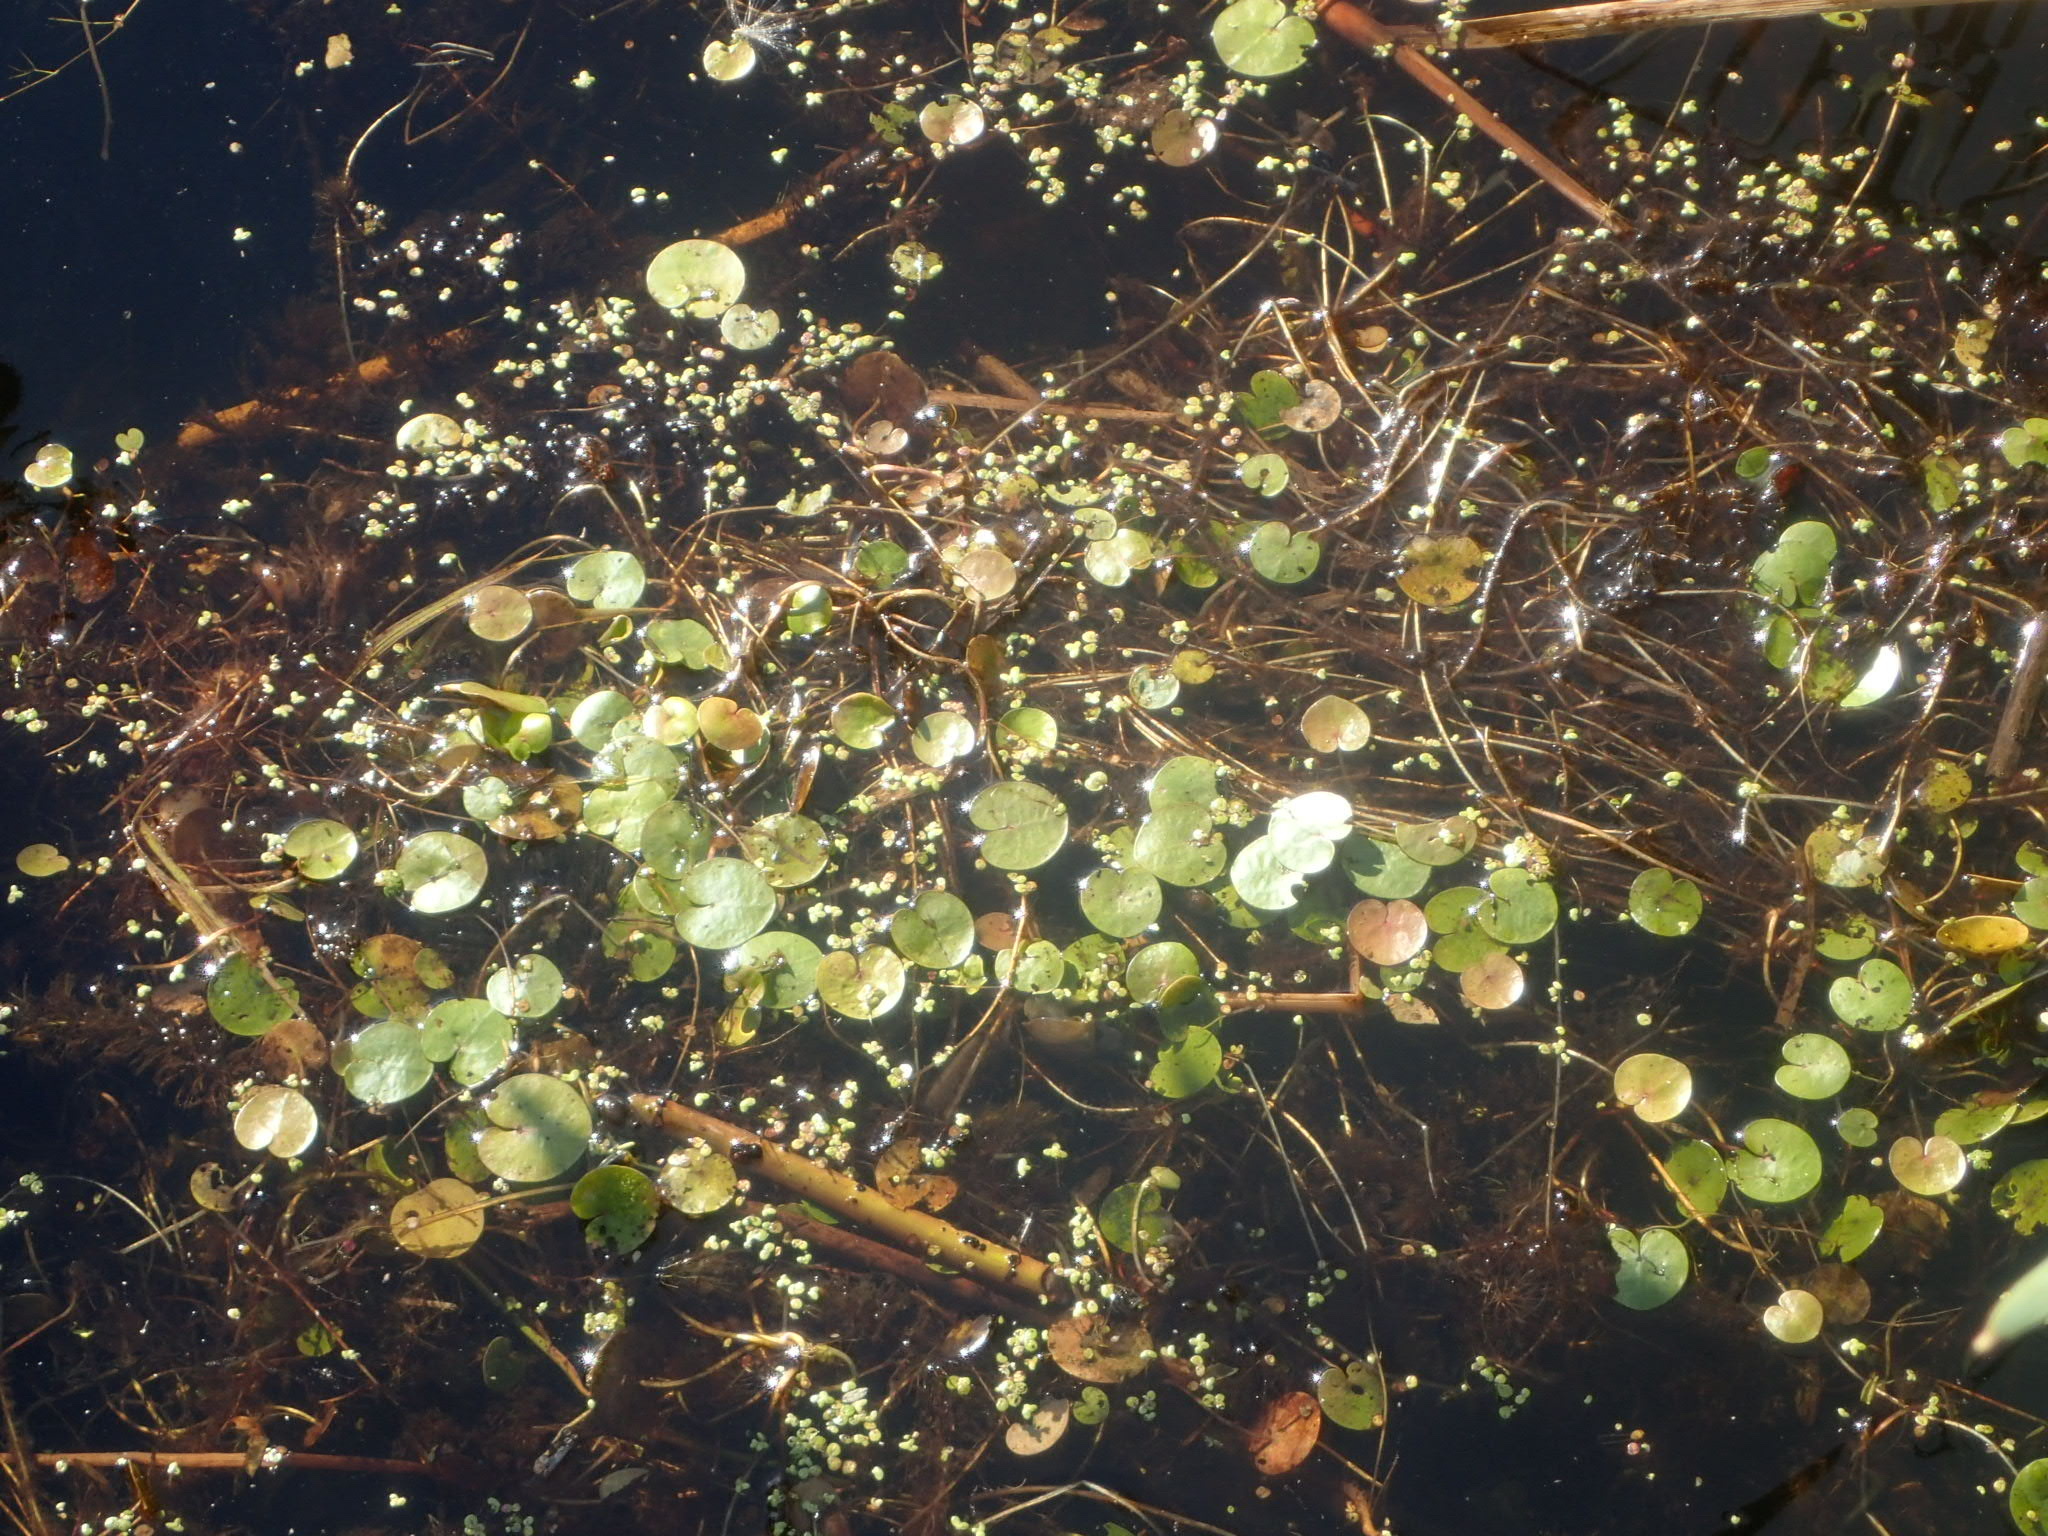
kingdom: Plantae
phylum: Tracheophyta
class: Liliopsida
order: Alismatales
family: Hydrocharitaceae
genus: Hydrocharis
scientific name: Hydrocharis morsus-ranae
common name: Frogbit
